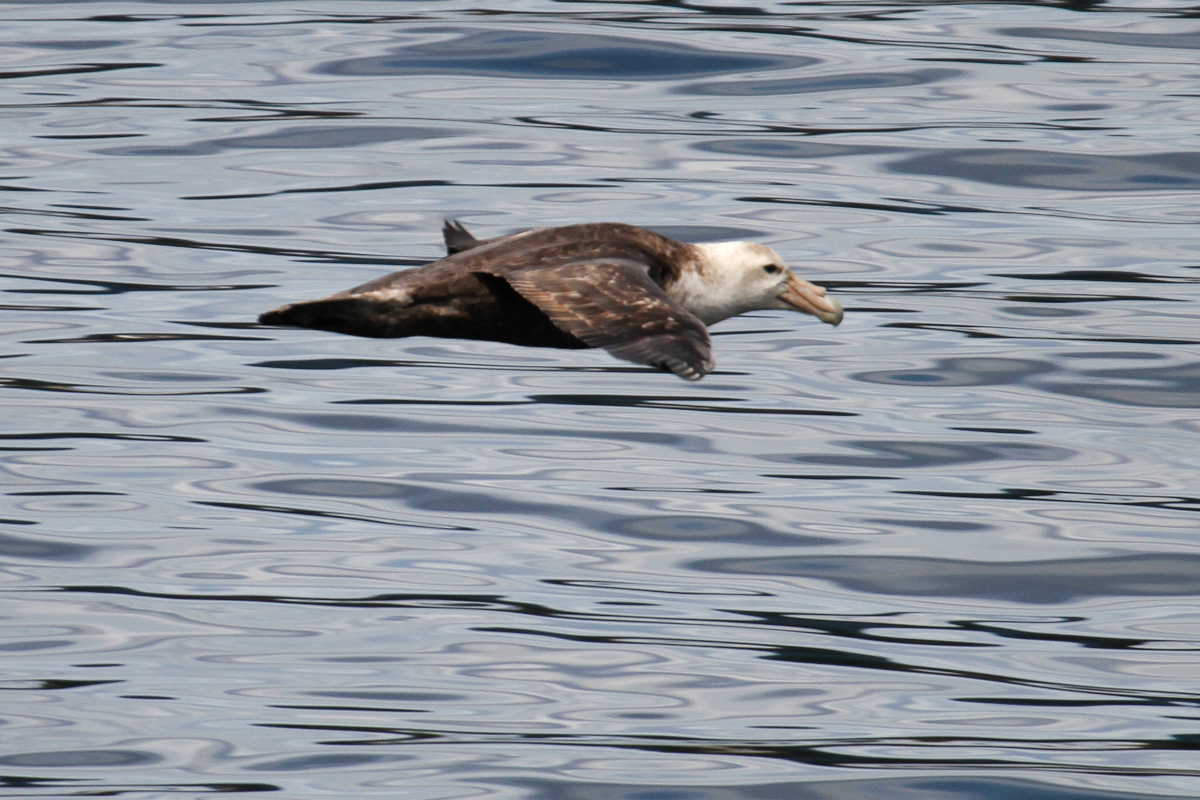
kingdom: Animalia
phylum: Chordata
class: Aves
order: Procellariiformes
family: Procellariidae
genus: Macronectes
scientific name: Macronectes giganteus
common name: Southern giant petrel
